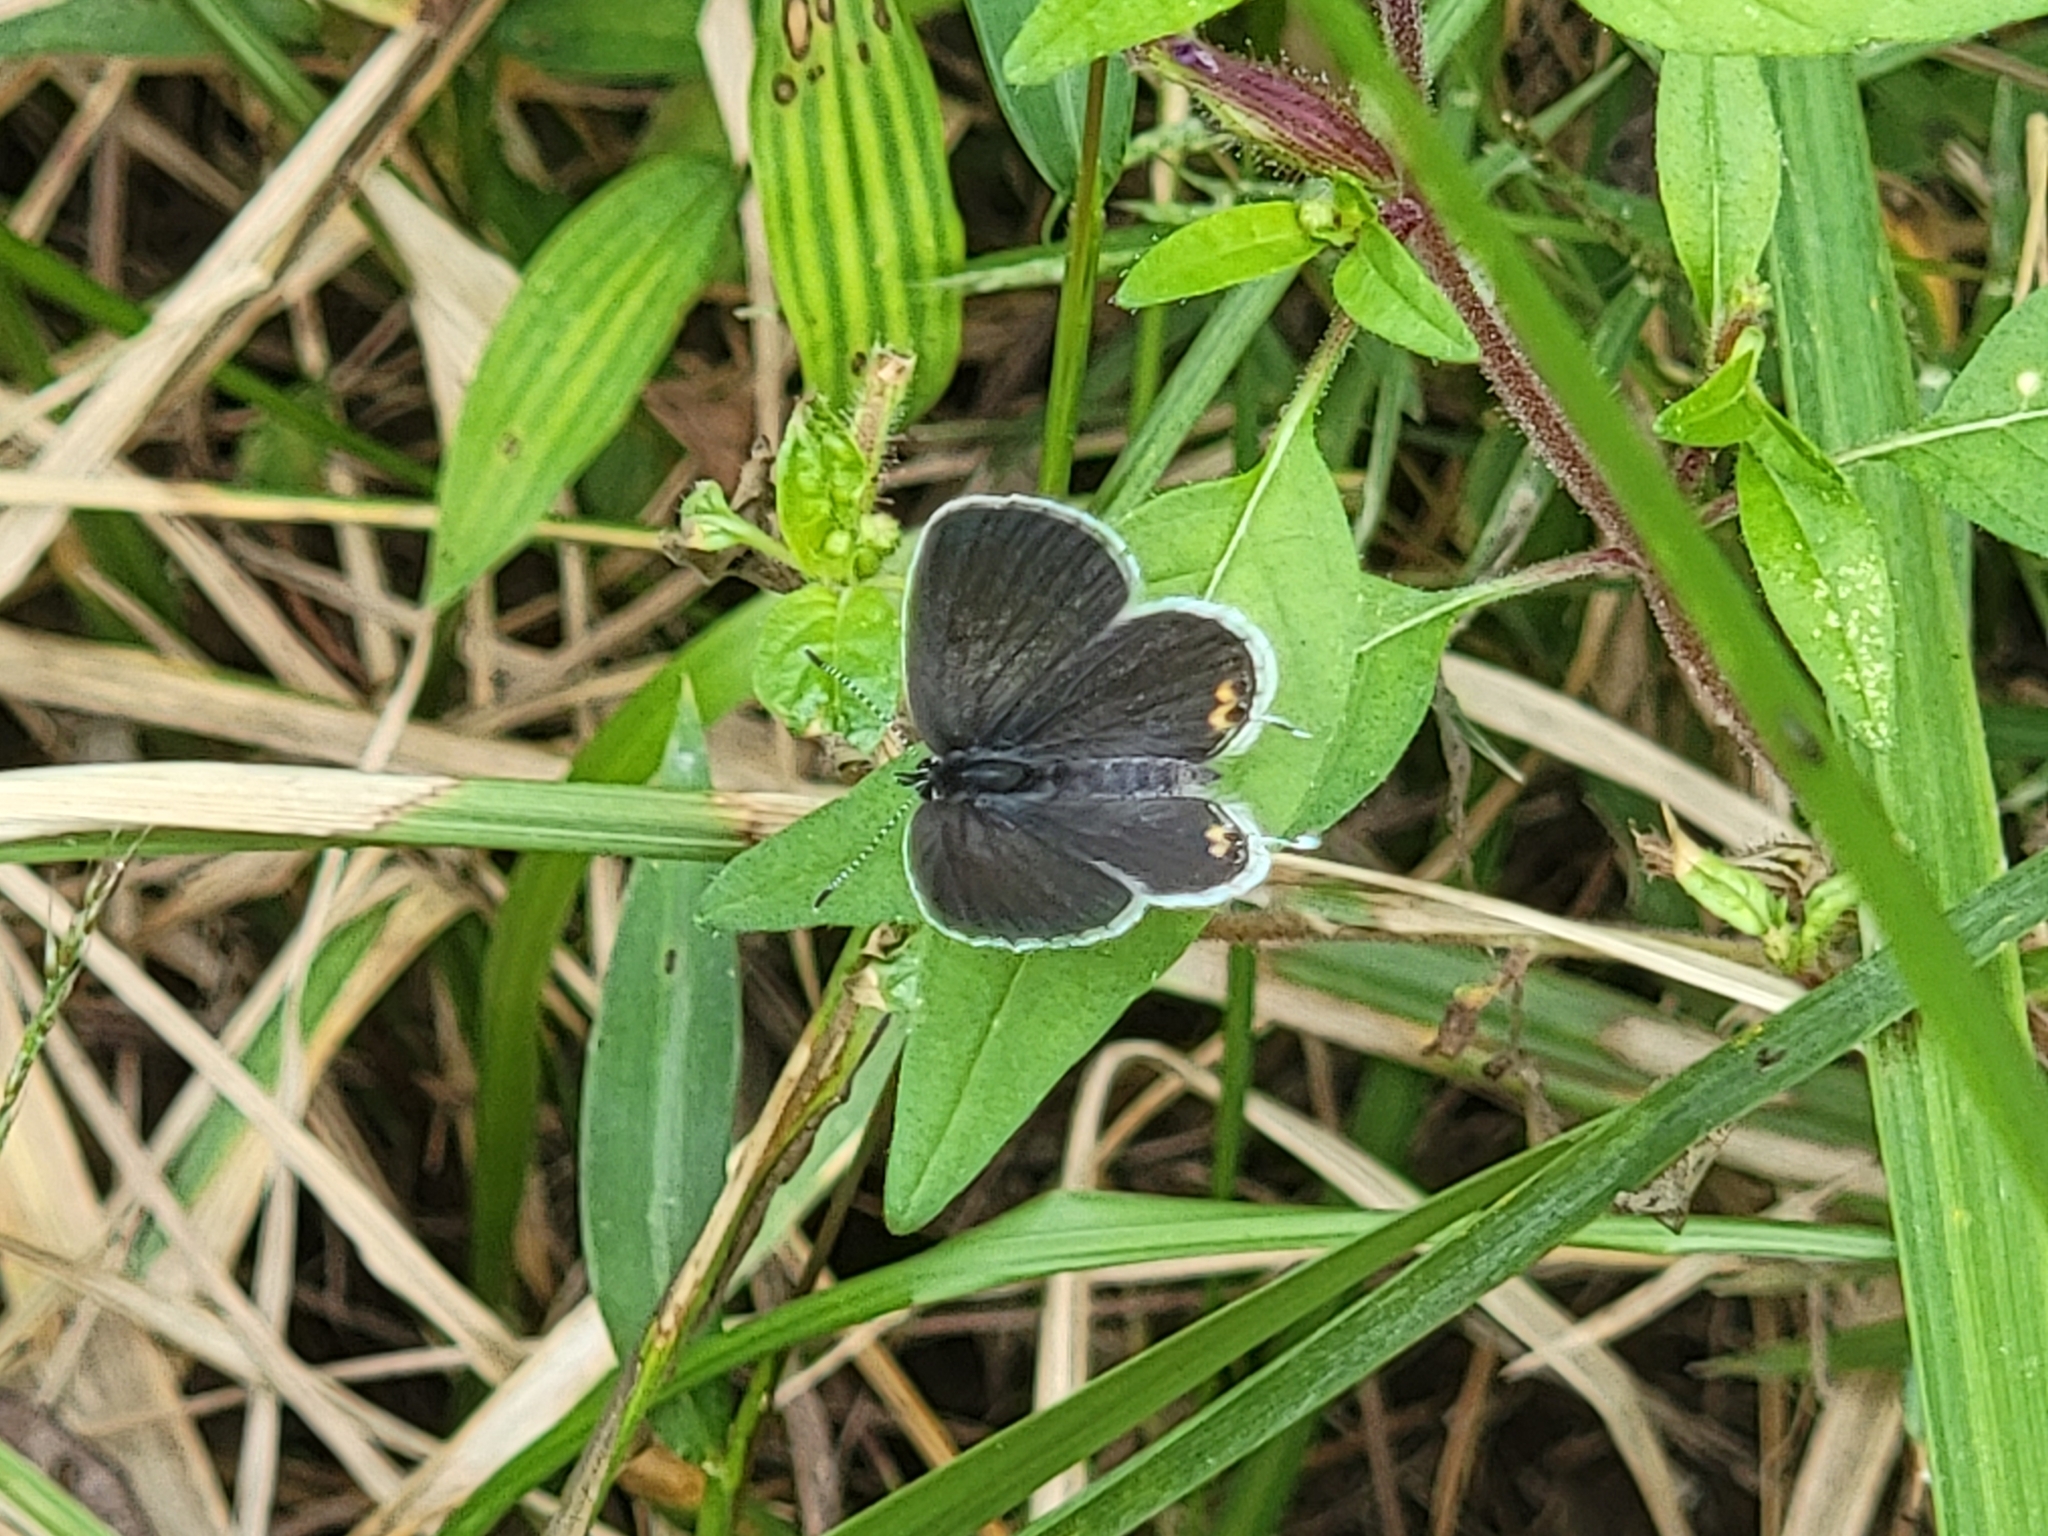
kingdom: Animalia
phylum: Arthropoda
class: Insecta
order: Lepidoptera
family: Lycaenidae
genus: Elkalyce
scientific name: Elkalyce comyntas
